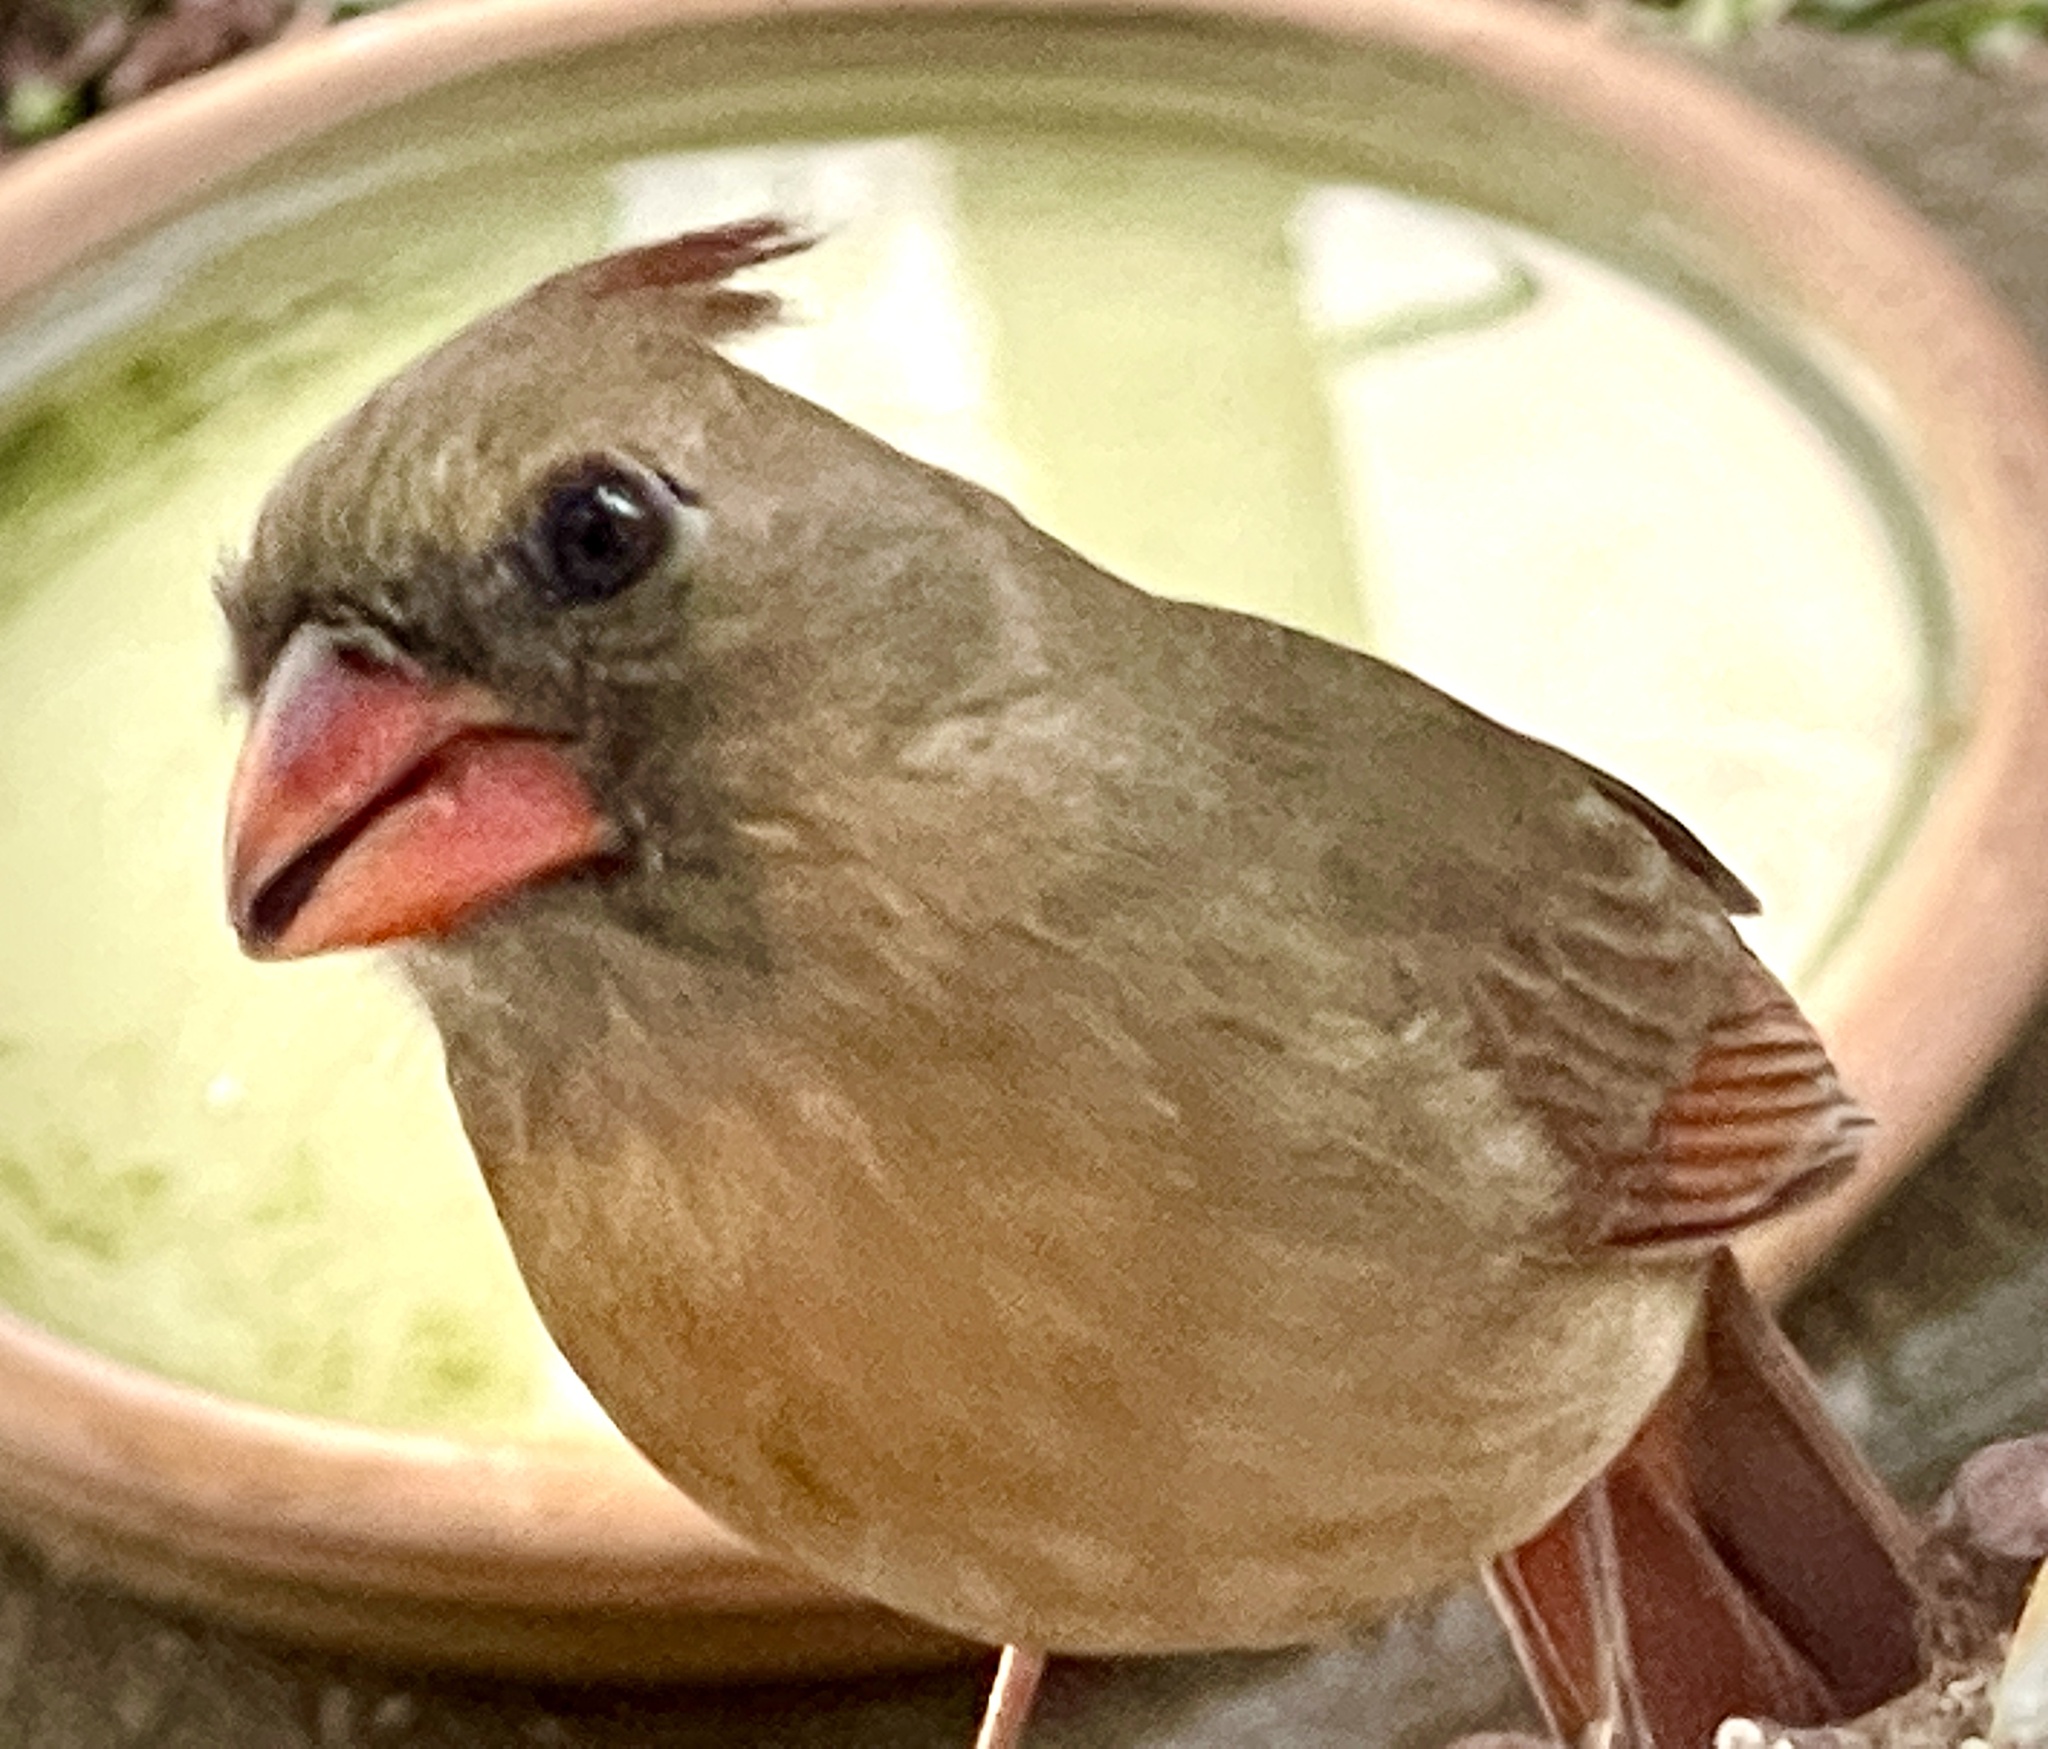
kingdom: Animalia
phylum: Chordata
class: Aves
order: Passeriformes
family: Cardinalidae
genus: Cardinalis
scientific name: Cardinalis cardinalis
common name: Northern cardinal
